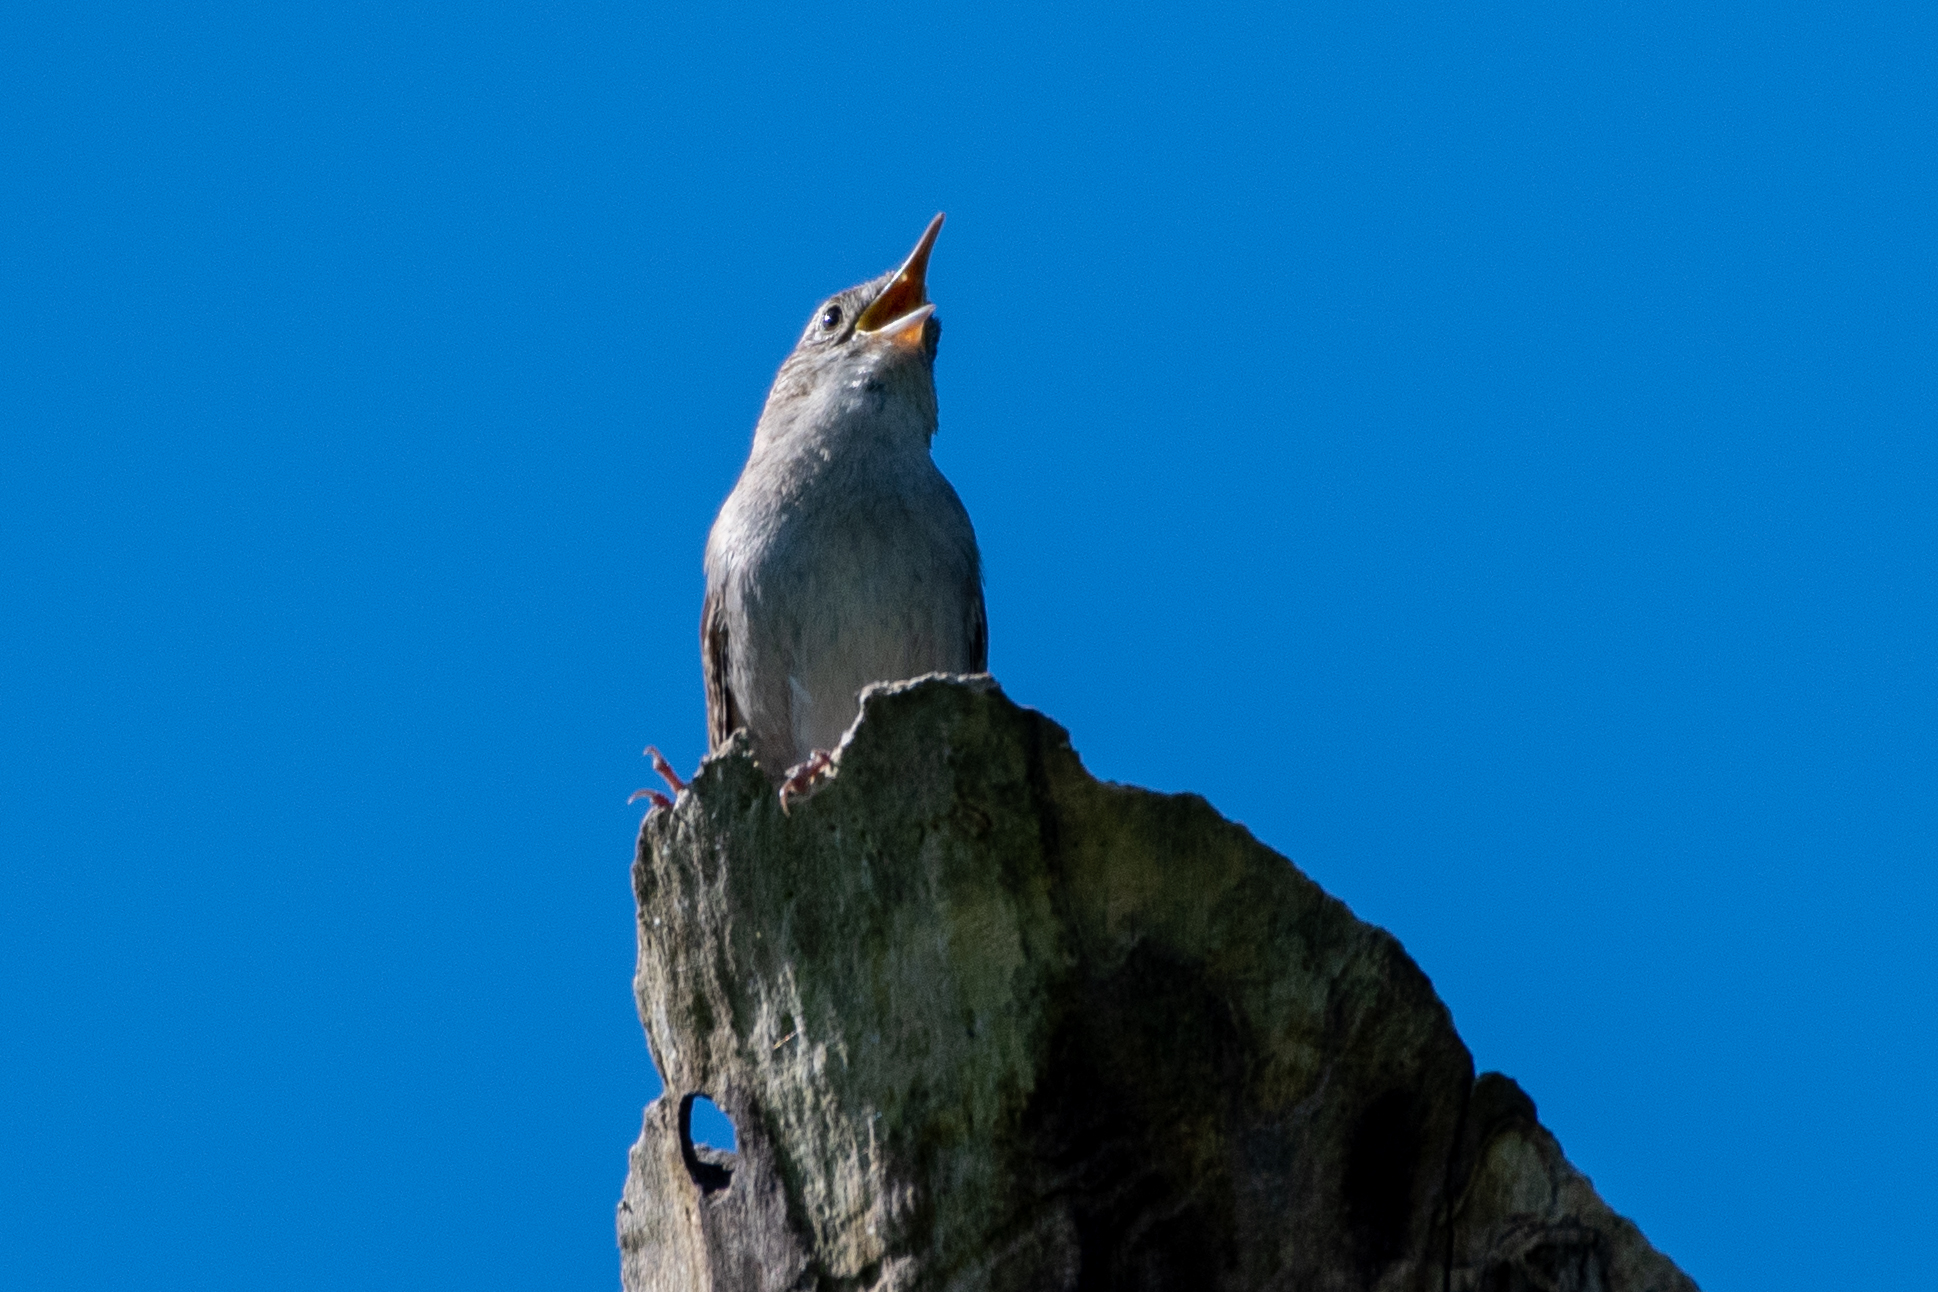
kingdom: Animalia
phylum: Chordata
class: Aves
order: Passeriformes
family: Troglodytidae
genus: Troglodytes
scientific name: Troglodytes aedon
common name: House wren
